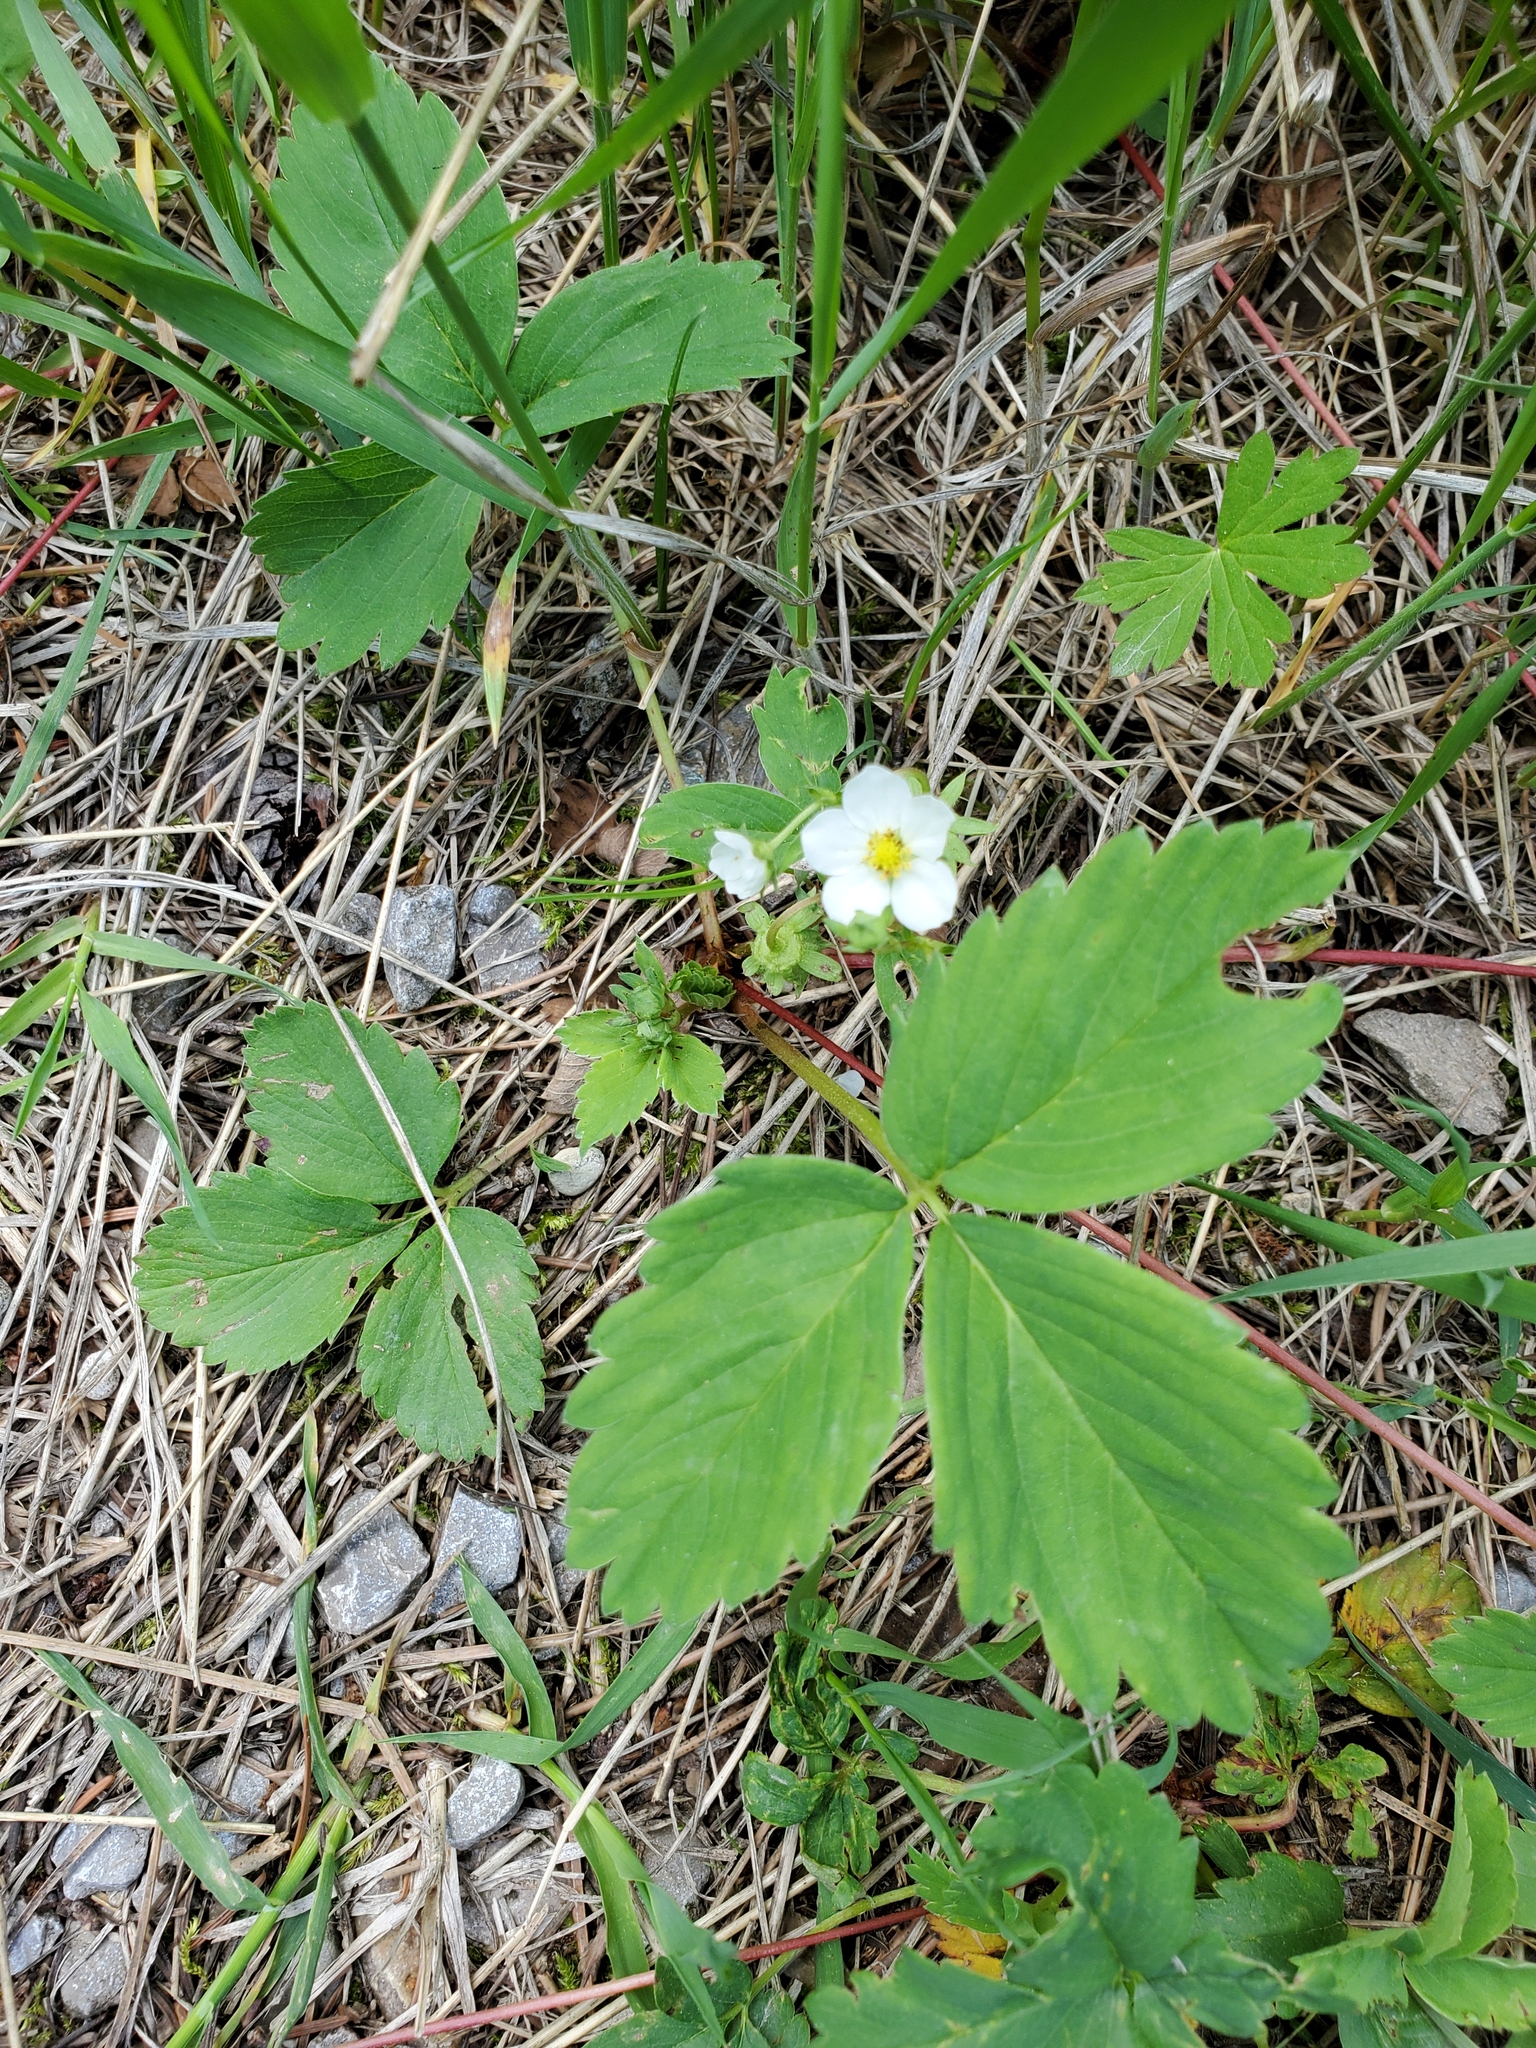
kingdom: Plantae
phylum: Tracheophyta
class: Magnoliopsida
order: Rosales
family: Rosaceae
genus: Fragaria
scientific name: Fragaria virginiana
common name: Thickleaved wild strawberry
